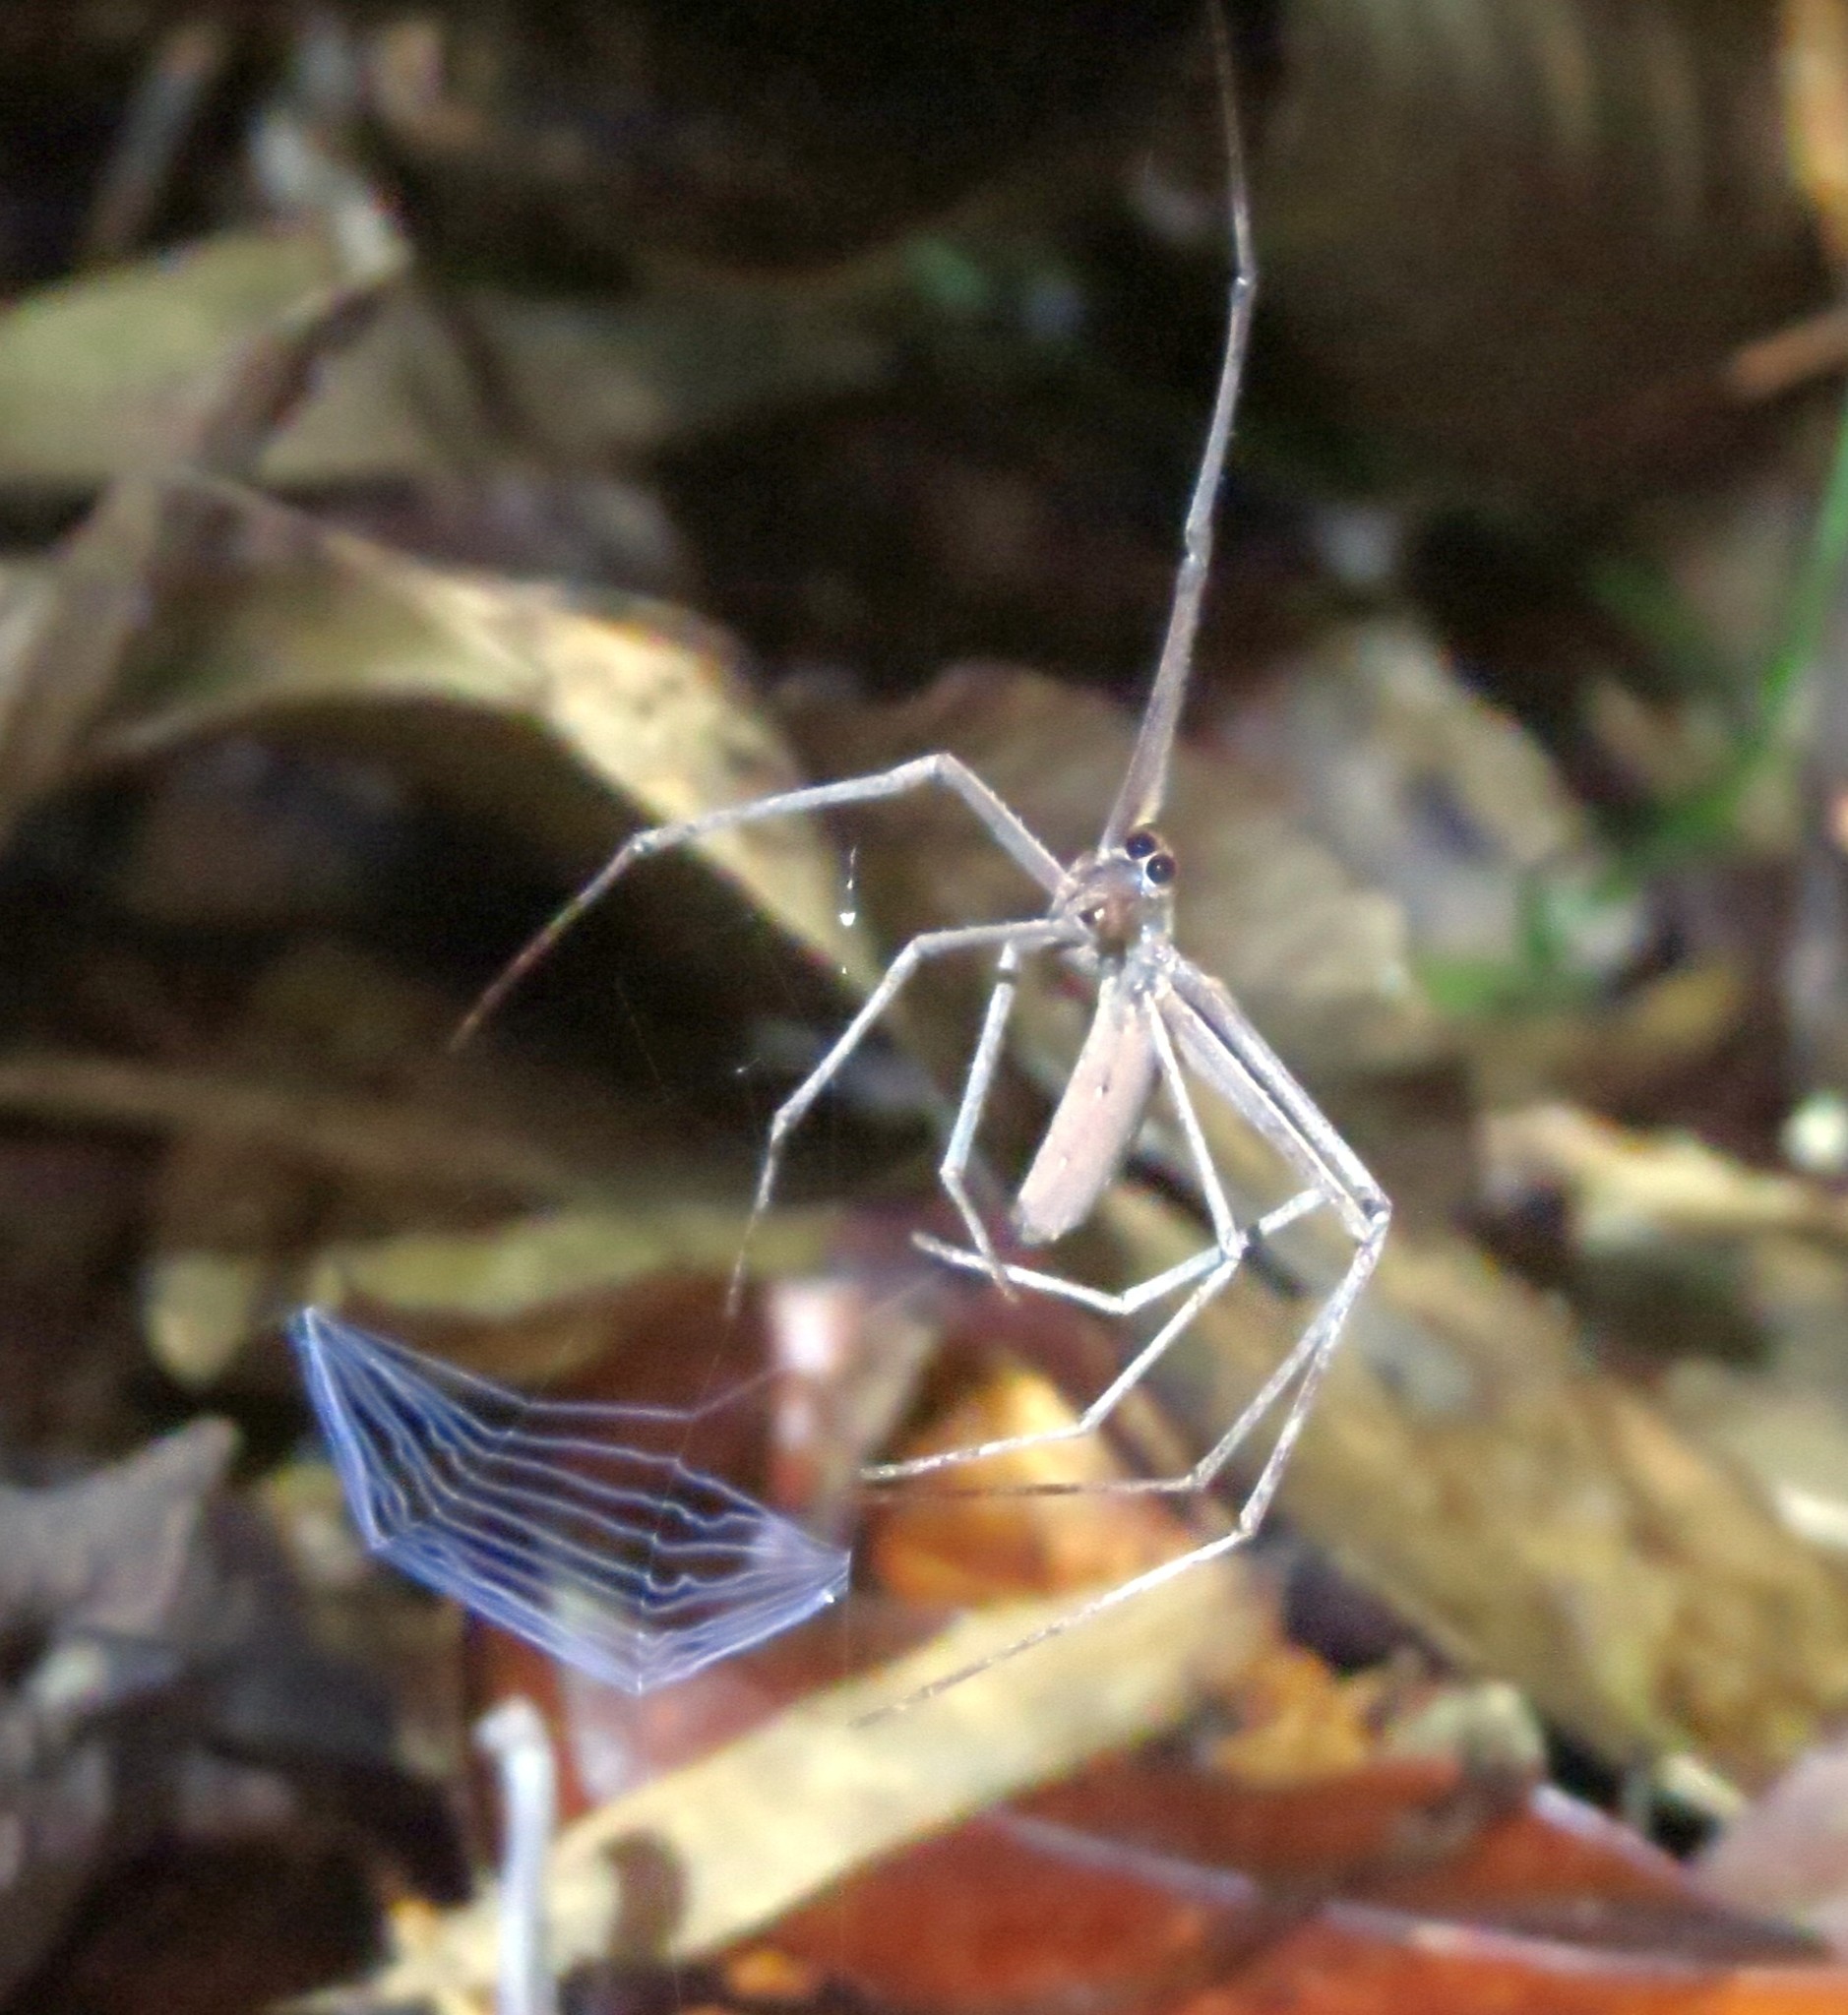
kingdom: Animalia
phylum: Arthropoda
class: Arachnida
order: Araneae
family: Deinopidae
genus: Deinopis
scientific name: Deinopis madagascariensis
